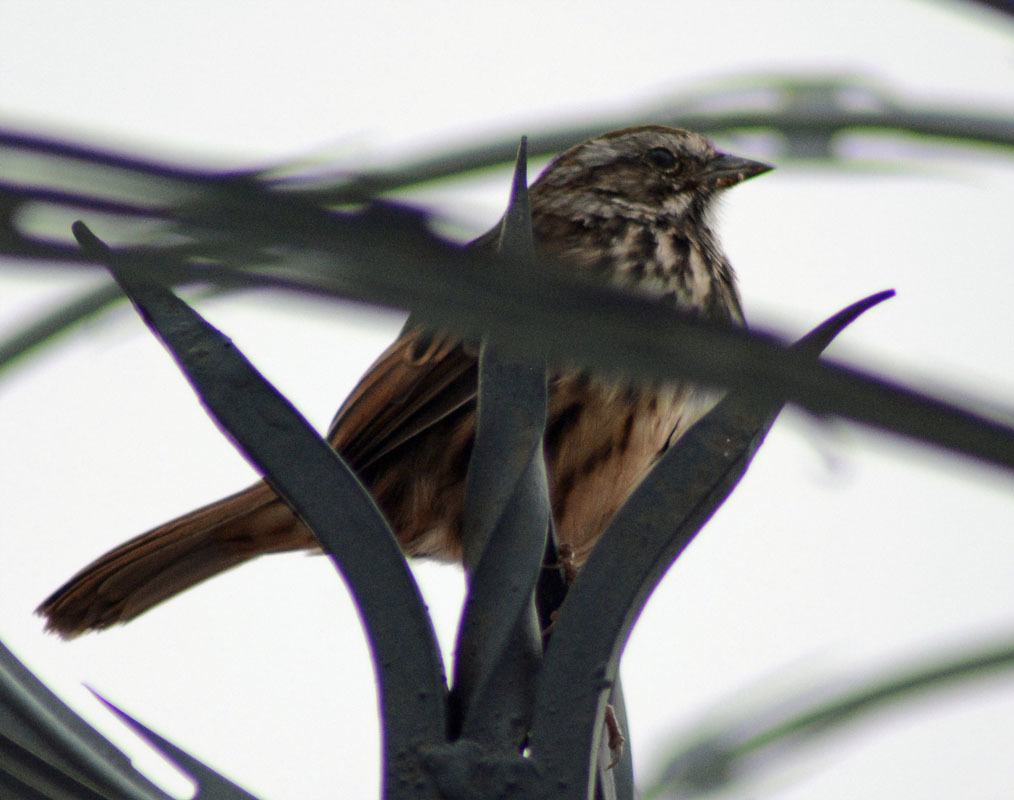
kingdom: Animalia
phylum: Chordata
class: Aves
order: Passeriformes
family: Passerellidae
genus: Melospiza
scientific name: Melospiza melodia
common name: Song sparrow
